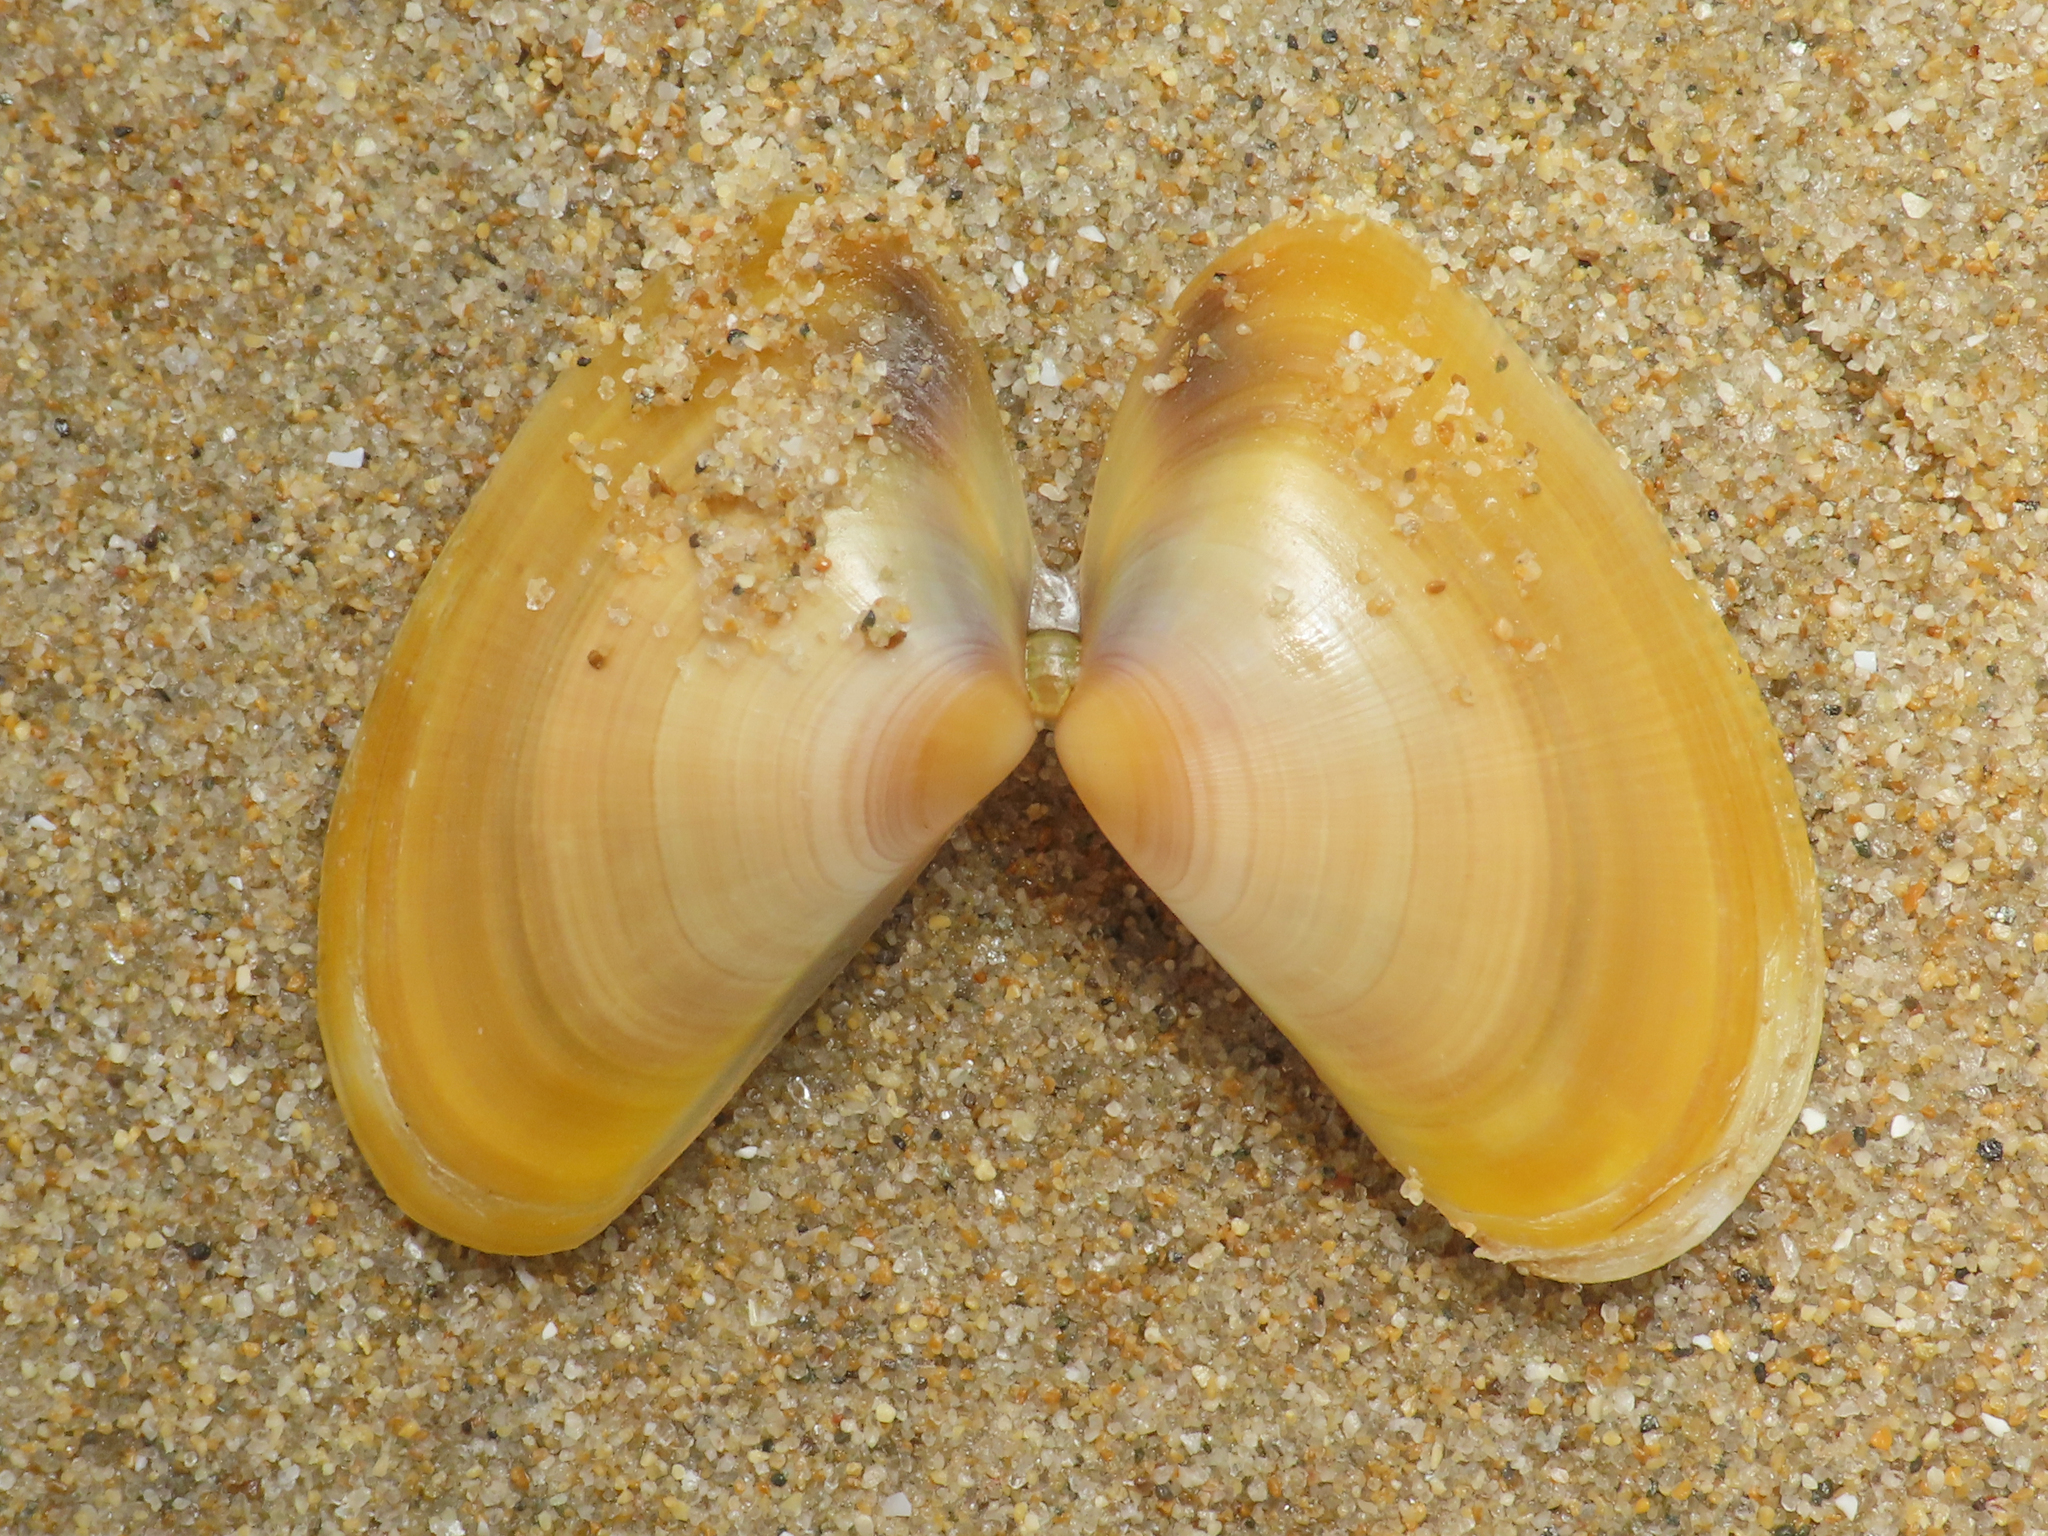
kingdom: Animalia
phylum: Mollusca
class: Bivalvia
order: Cardiida
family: Donacidae
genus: Donax
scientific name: Donax trunculus
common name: Truncate donax
